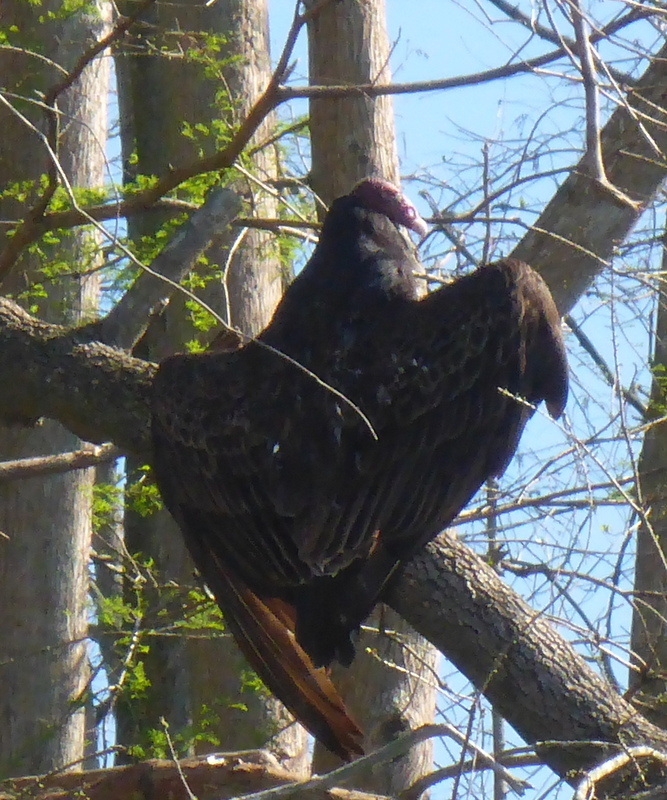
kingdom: Animalia
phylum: Chordata
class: Aves
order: Accipitriformes
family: Cathartidae
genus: Cathartes
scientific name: Cathartes aura
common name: Turkey vulture
